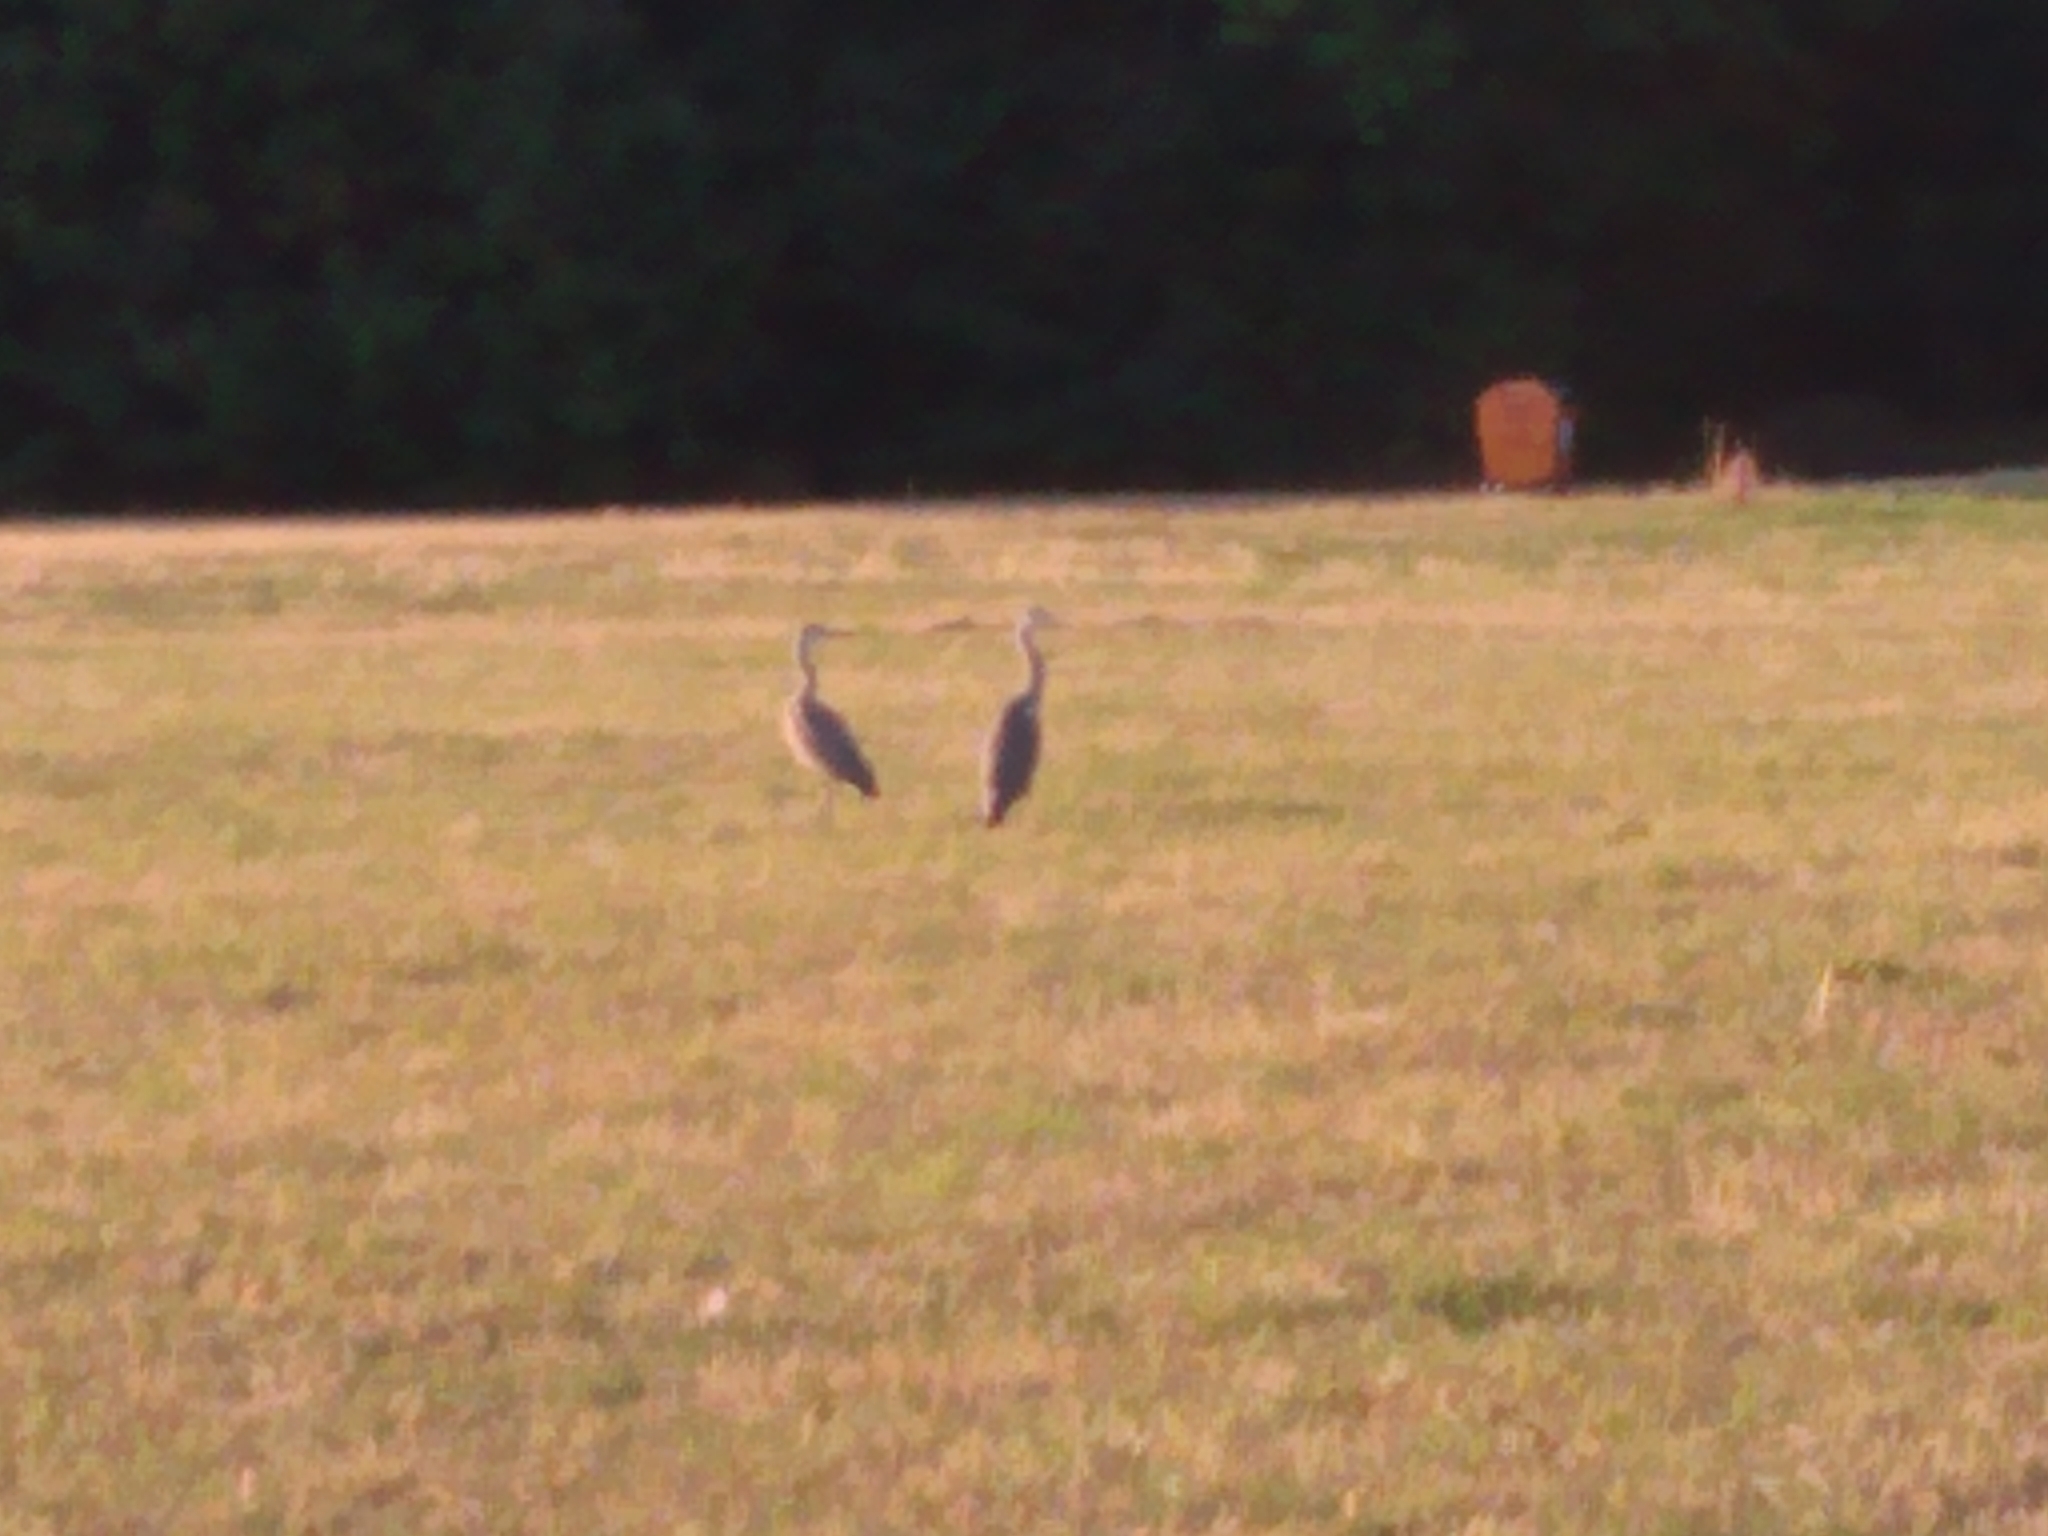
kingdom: Animalia
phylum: Chordata
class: Aves
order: Pelecaniformes
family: Ardeidae
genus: Ardea
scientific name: Ardea cinerea
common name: Grey heron
